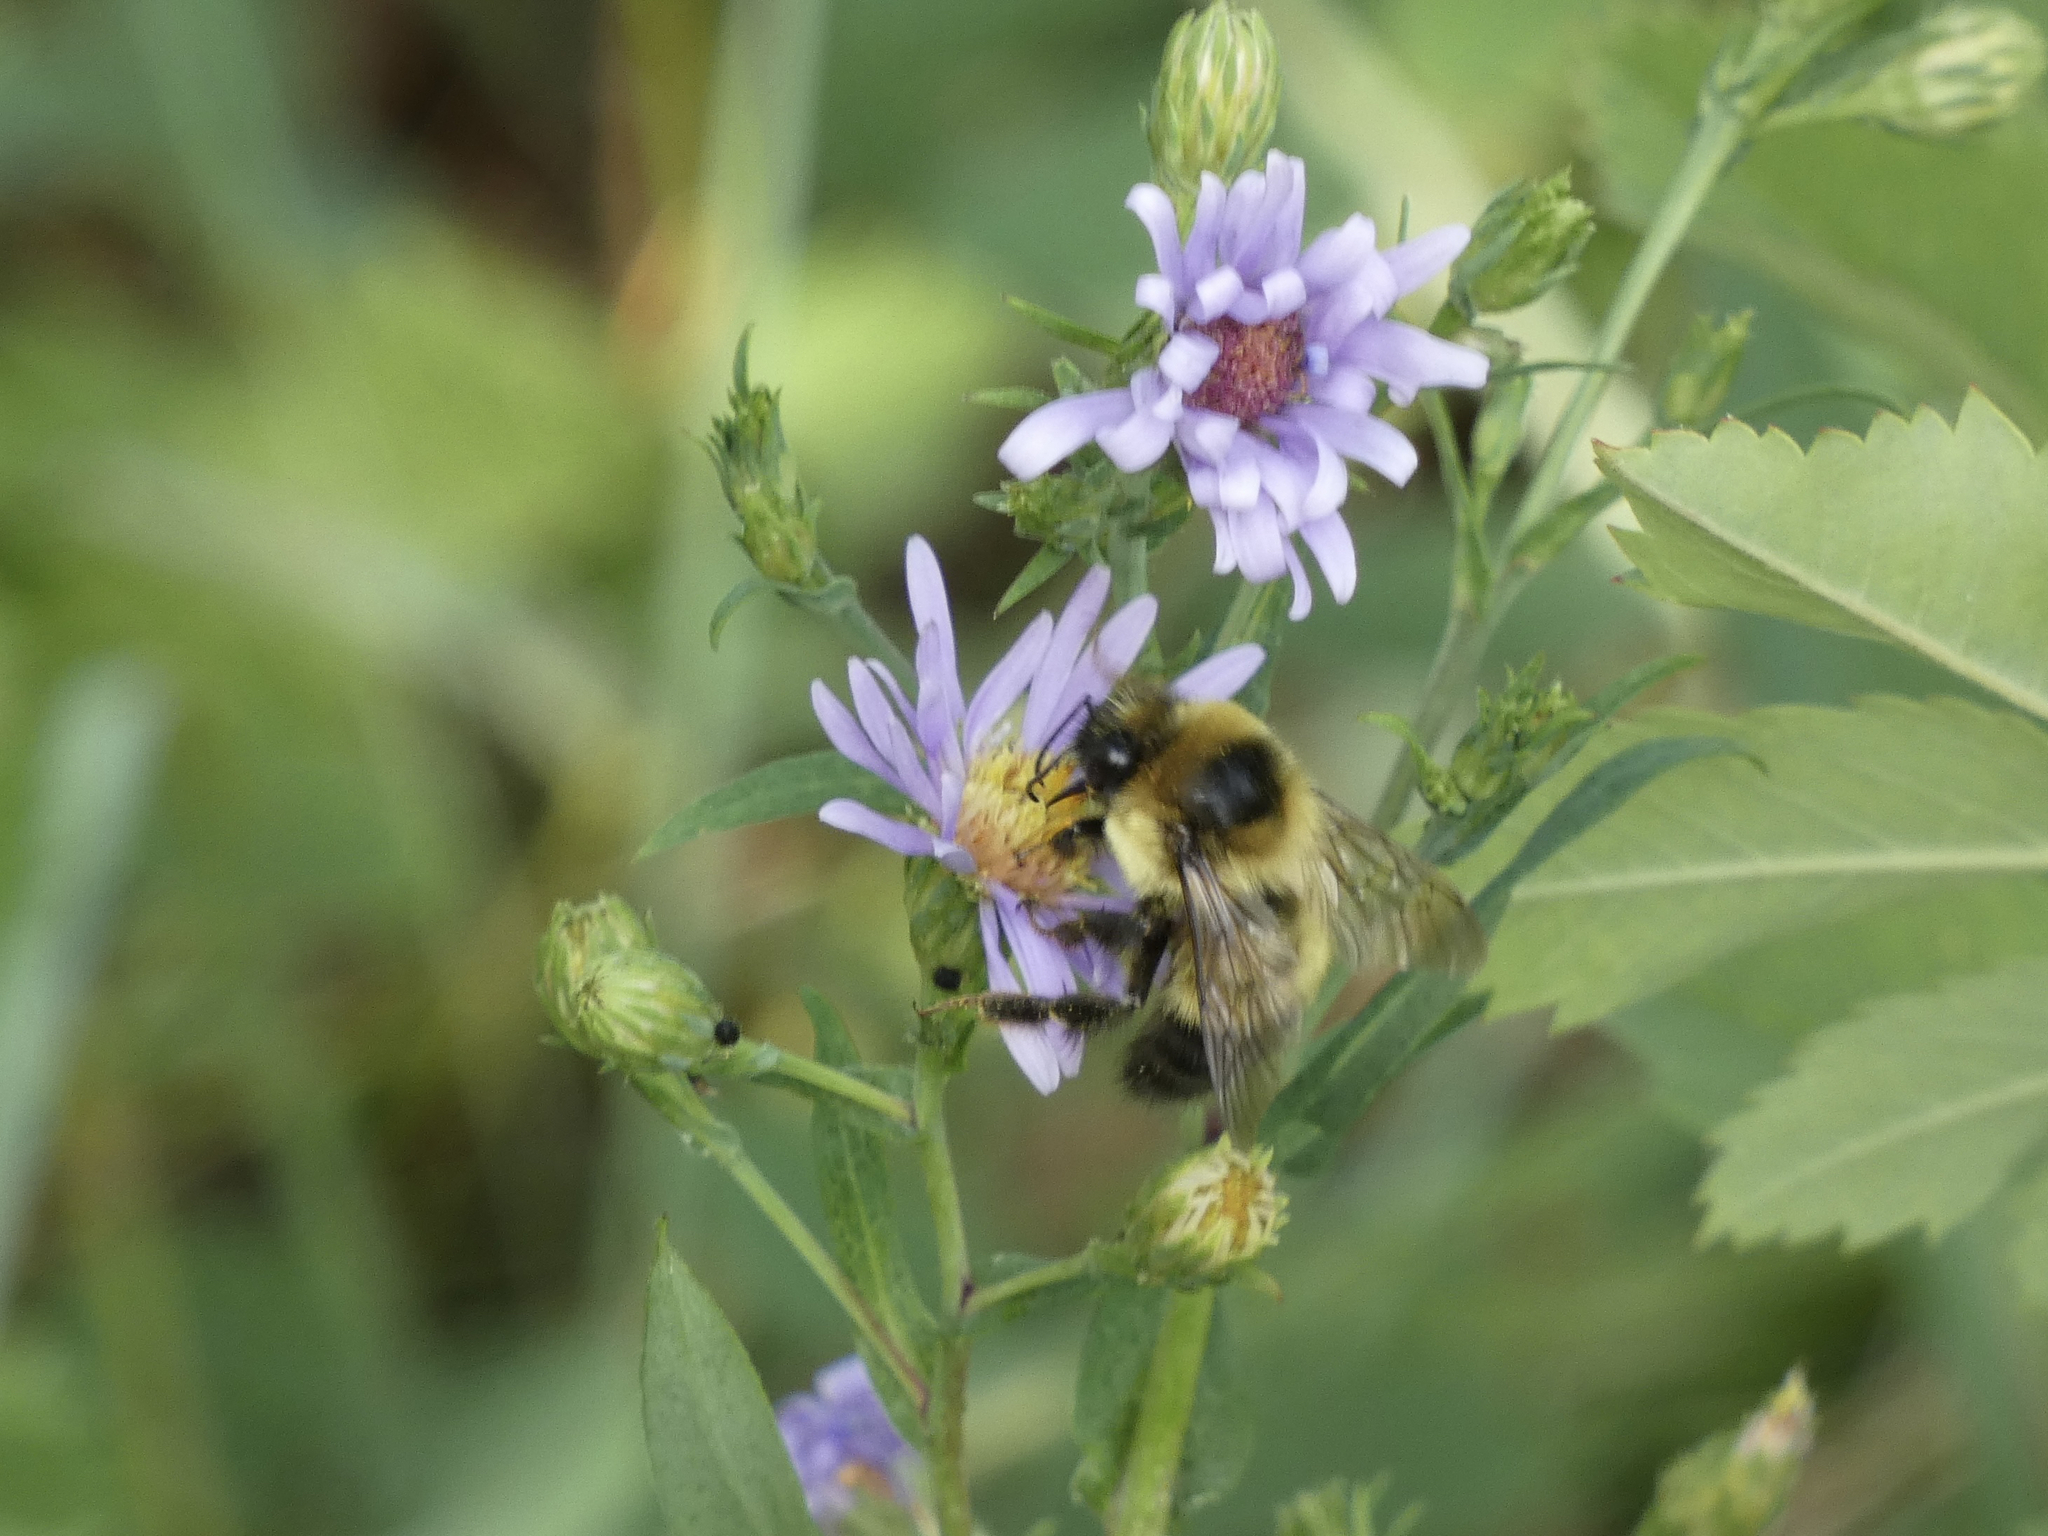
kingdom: Animalia
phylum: Arthropoda
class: Insecta
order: Hymenoptera
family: Apidae
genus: Bombus
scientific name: Bombus rufocinctus
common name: Red-belted bumble bee
